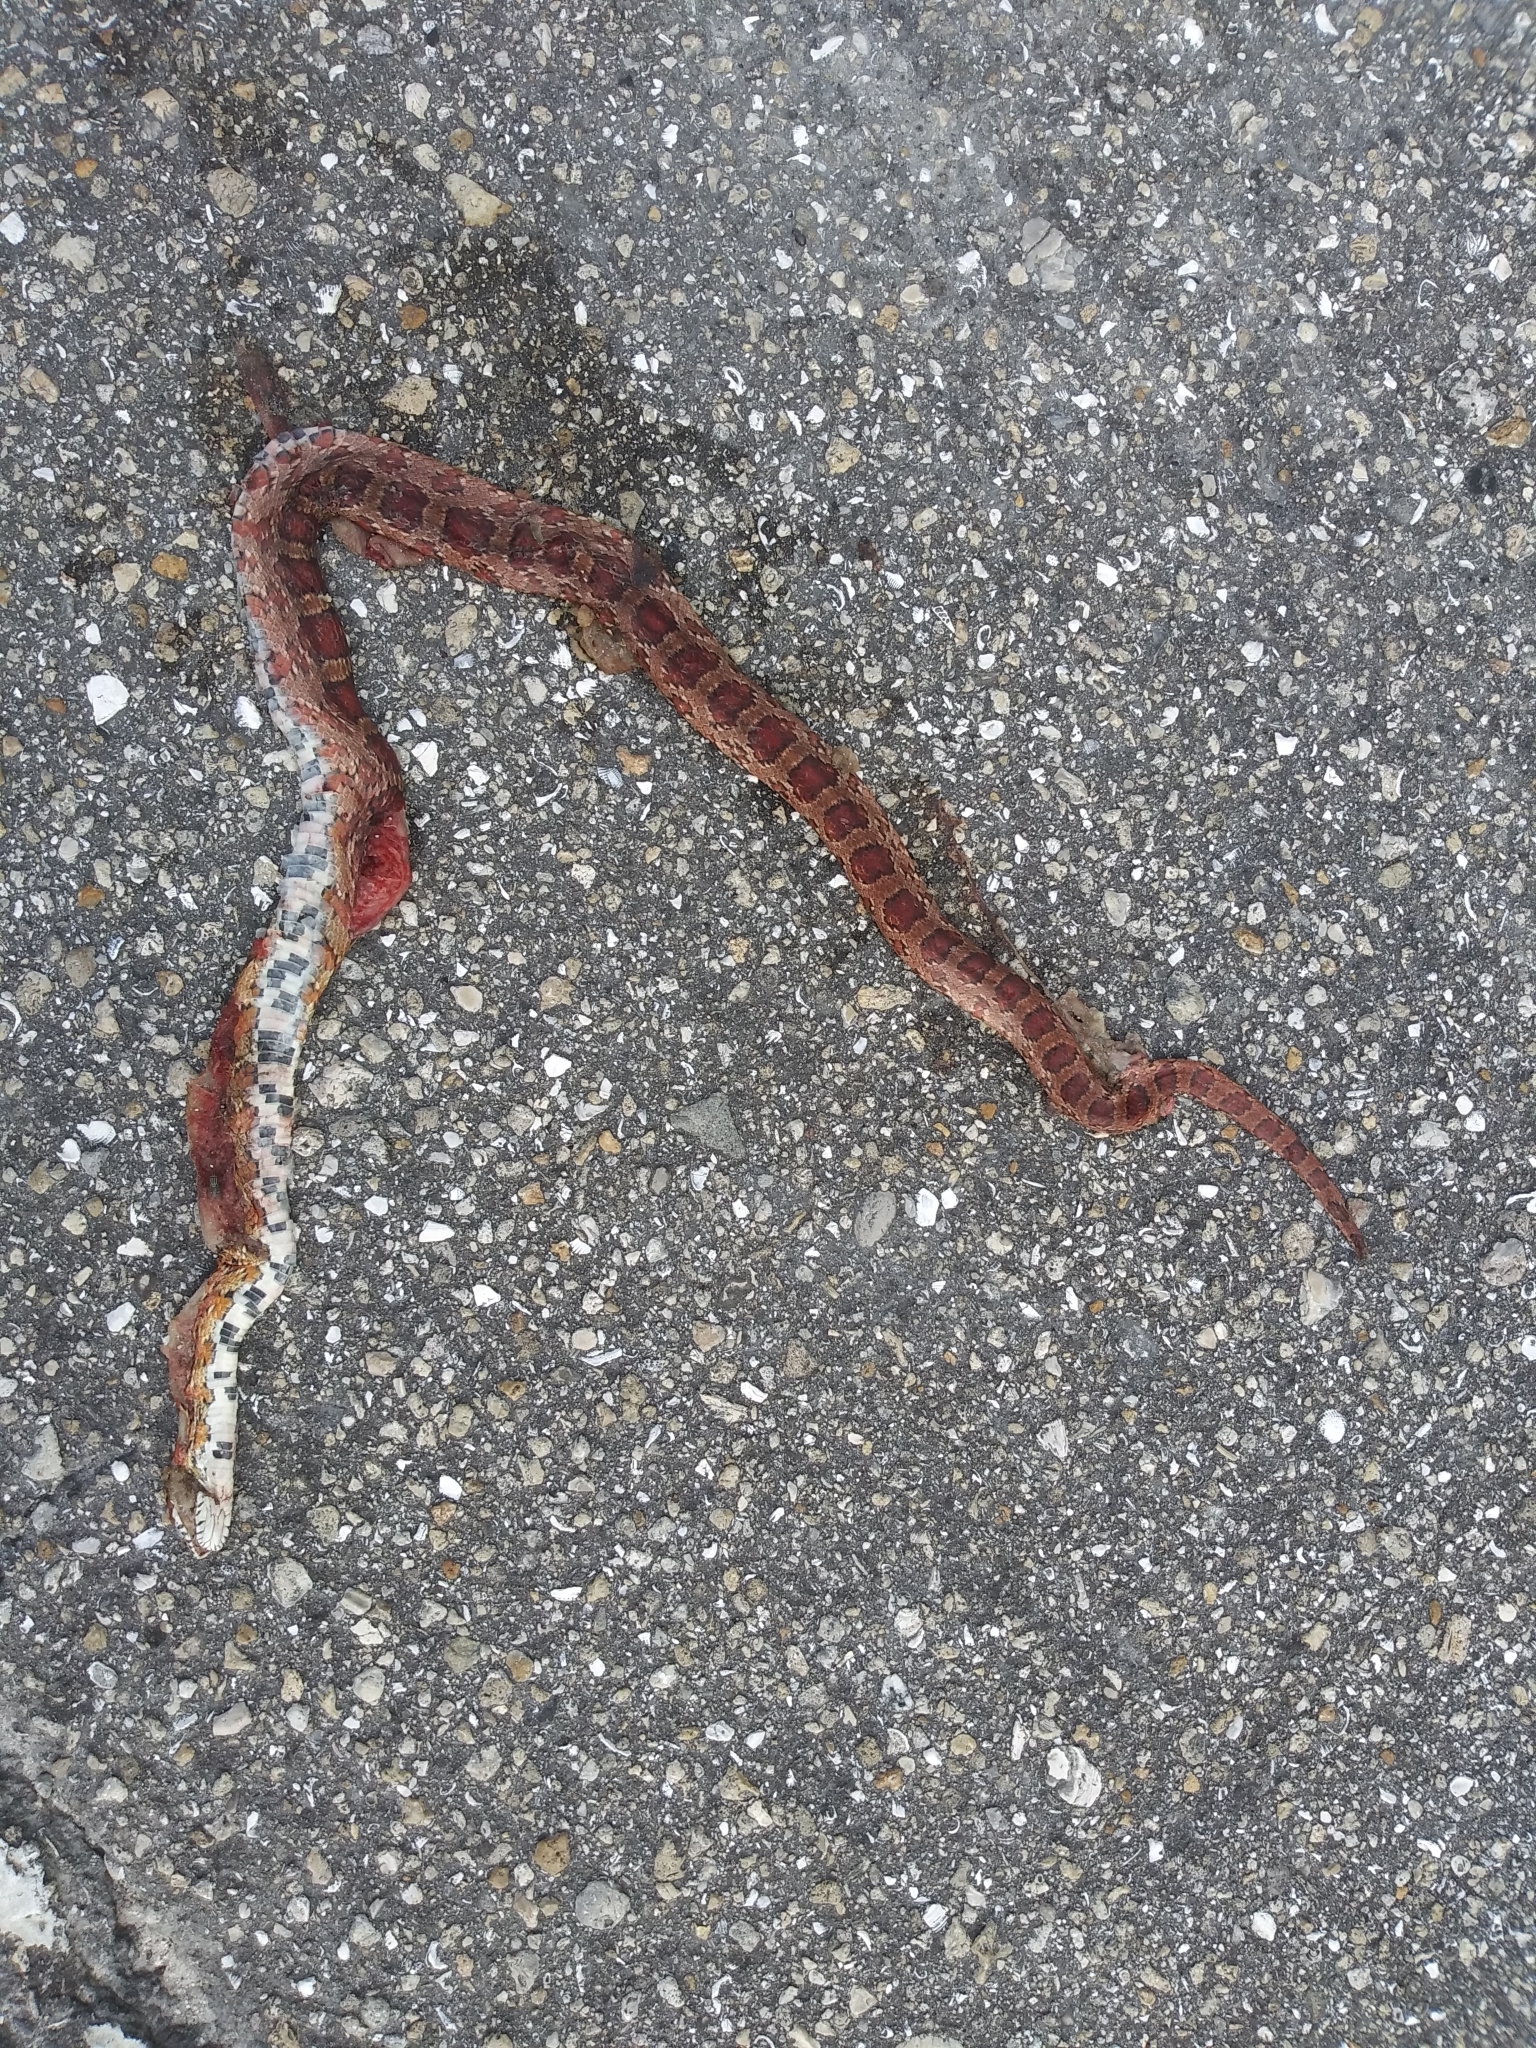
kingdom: Animalia
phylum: Chordata
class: Squamata
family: Colubridae
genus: Pantherophis
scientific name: Pantherophis guttatus
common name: Red cornsnake
